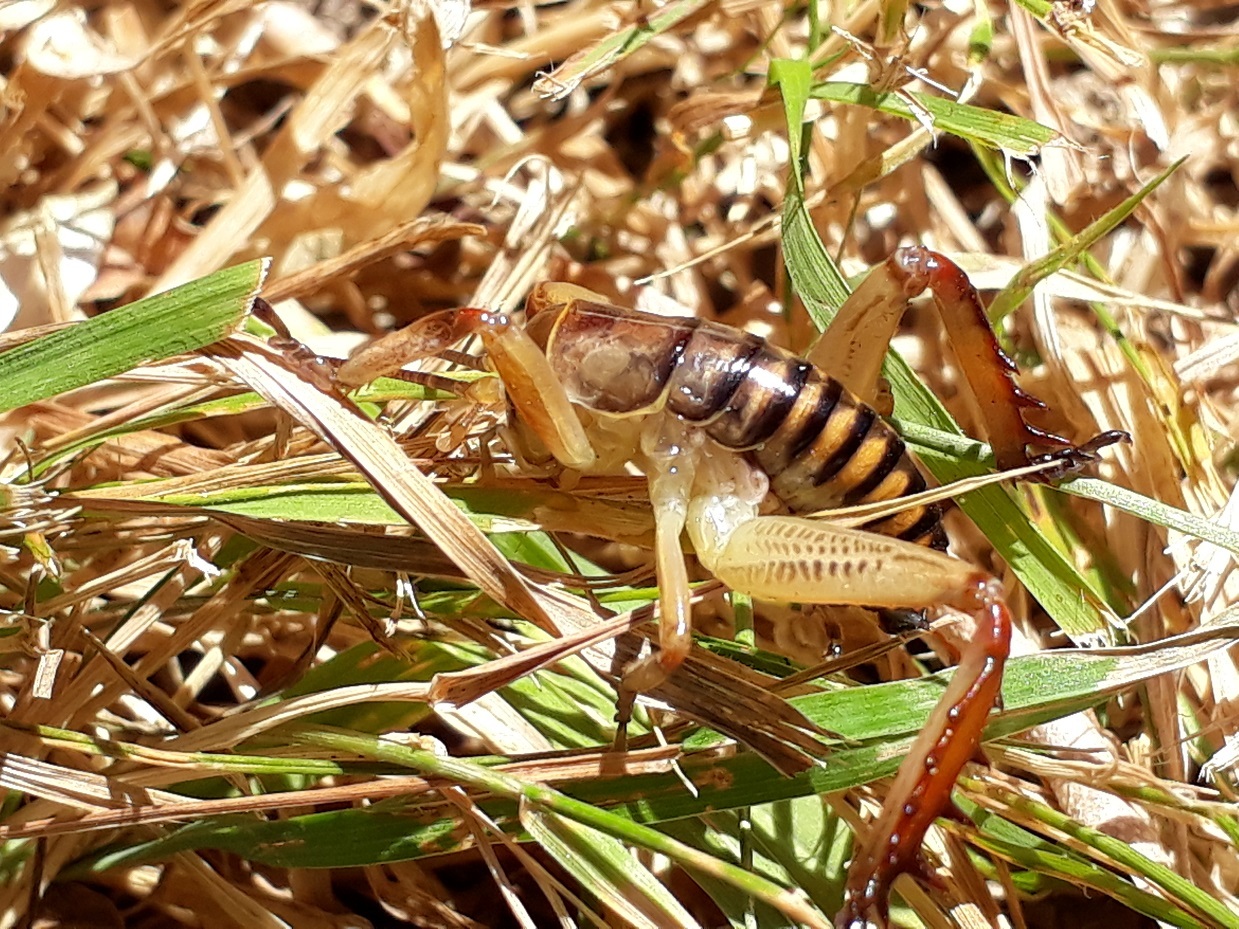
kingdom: Animalia
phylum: Arthropoda
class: Insecta
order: Orthoptera
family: Anostostomatidae
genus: Hemideina
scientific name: Hemideina crassidens
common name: Wellington tree weta
